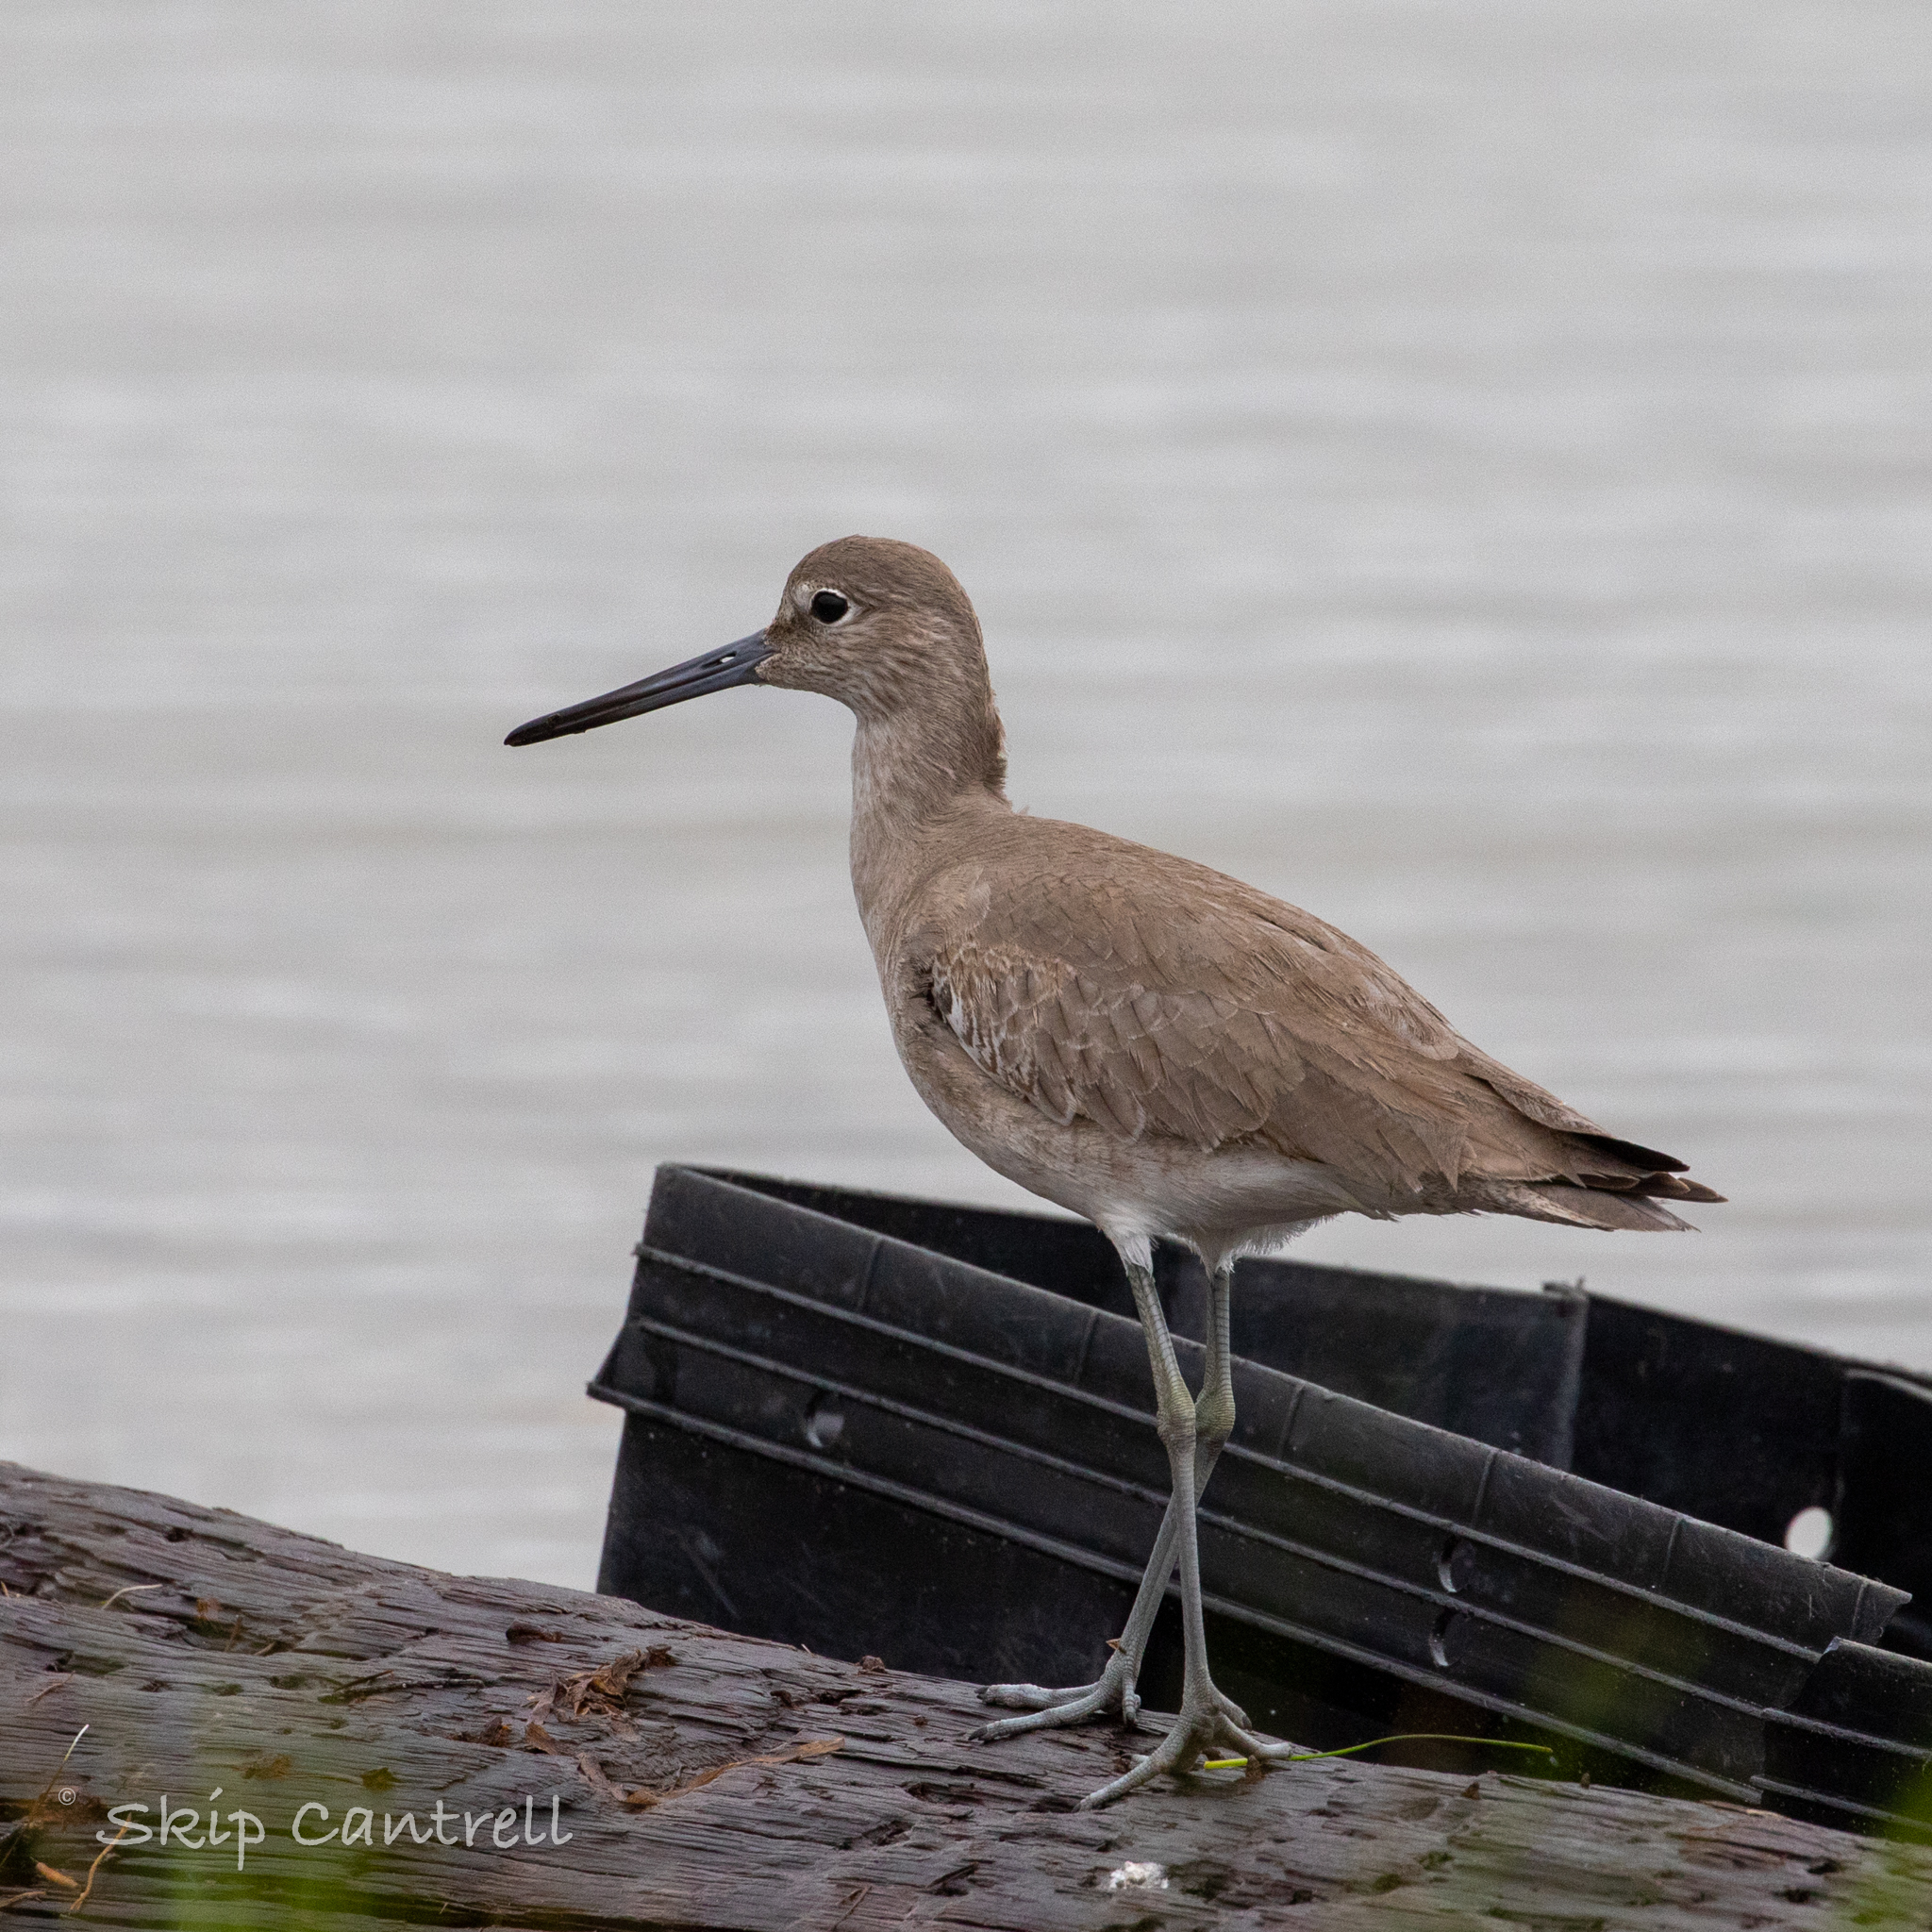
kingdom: Animalia
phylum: Chordata
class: Aves
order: Charadriiformes
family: Scolopacidae
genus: Tringa
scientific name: Tringa semipalmata
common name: Willet
